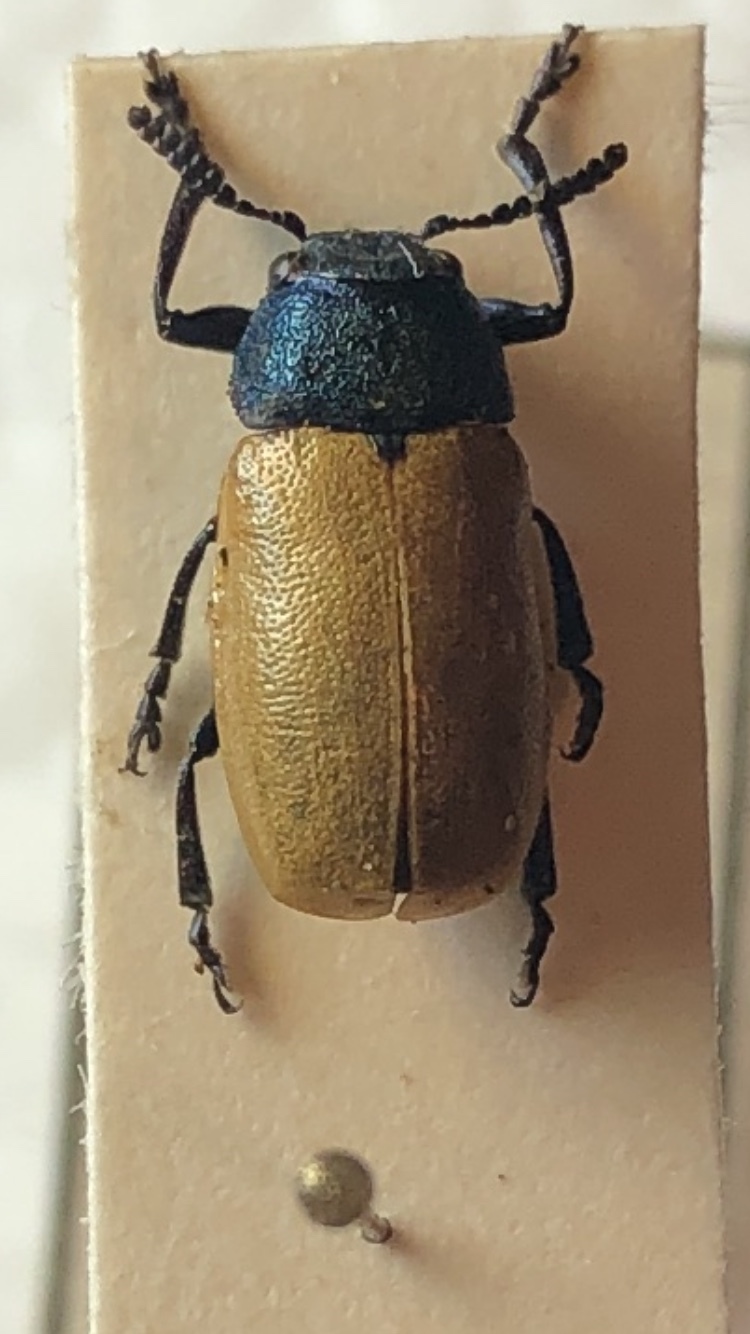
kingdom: Animalia
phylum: Arthropoda
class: Insecta
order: Coleoptera
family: Chrysomelidae
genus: Labidostomis
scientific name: Labidostomis longimana
